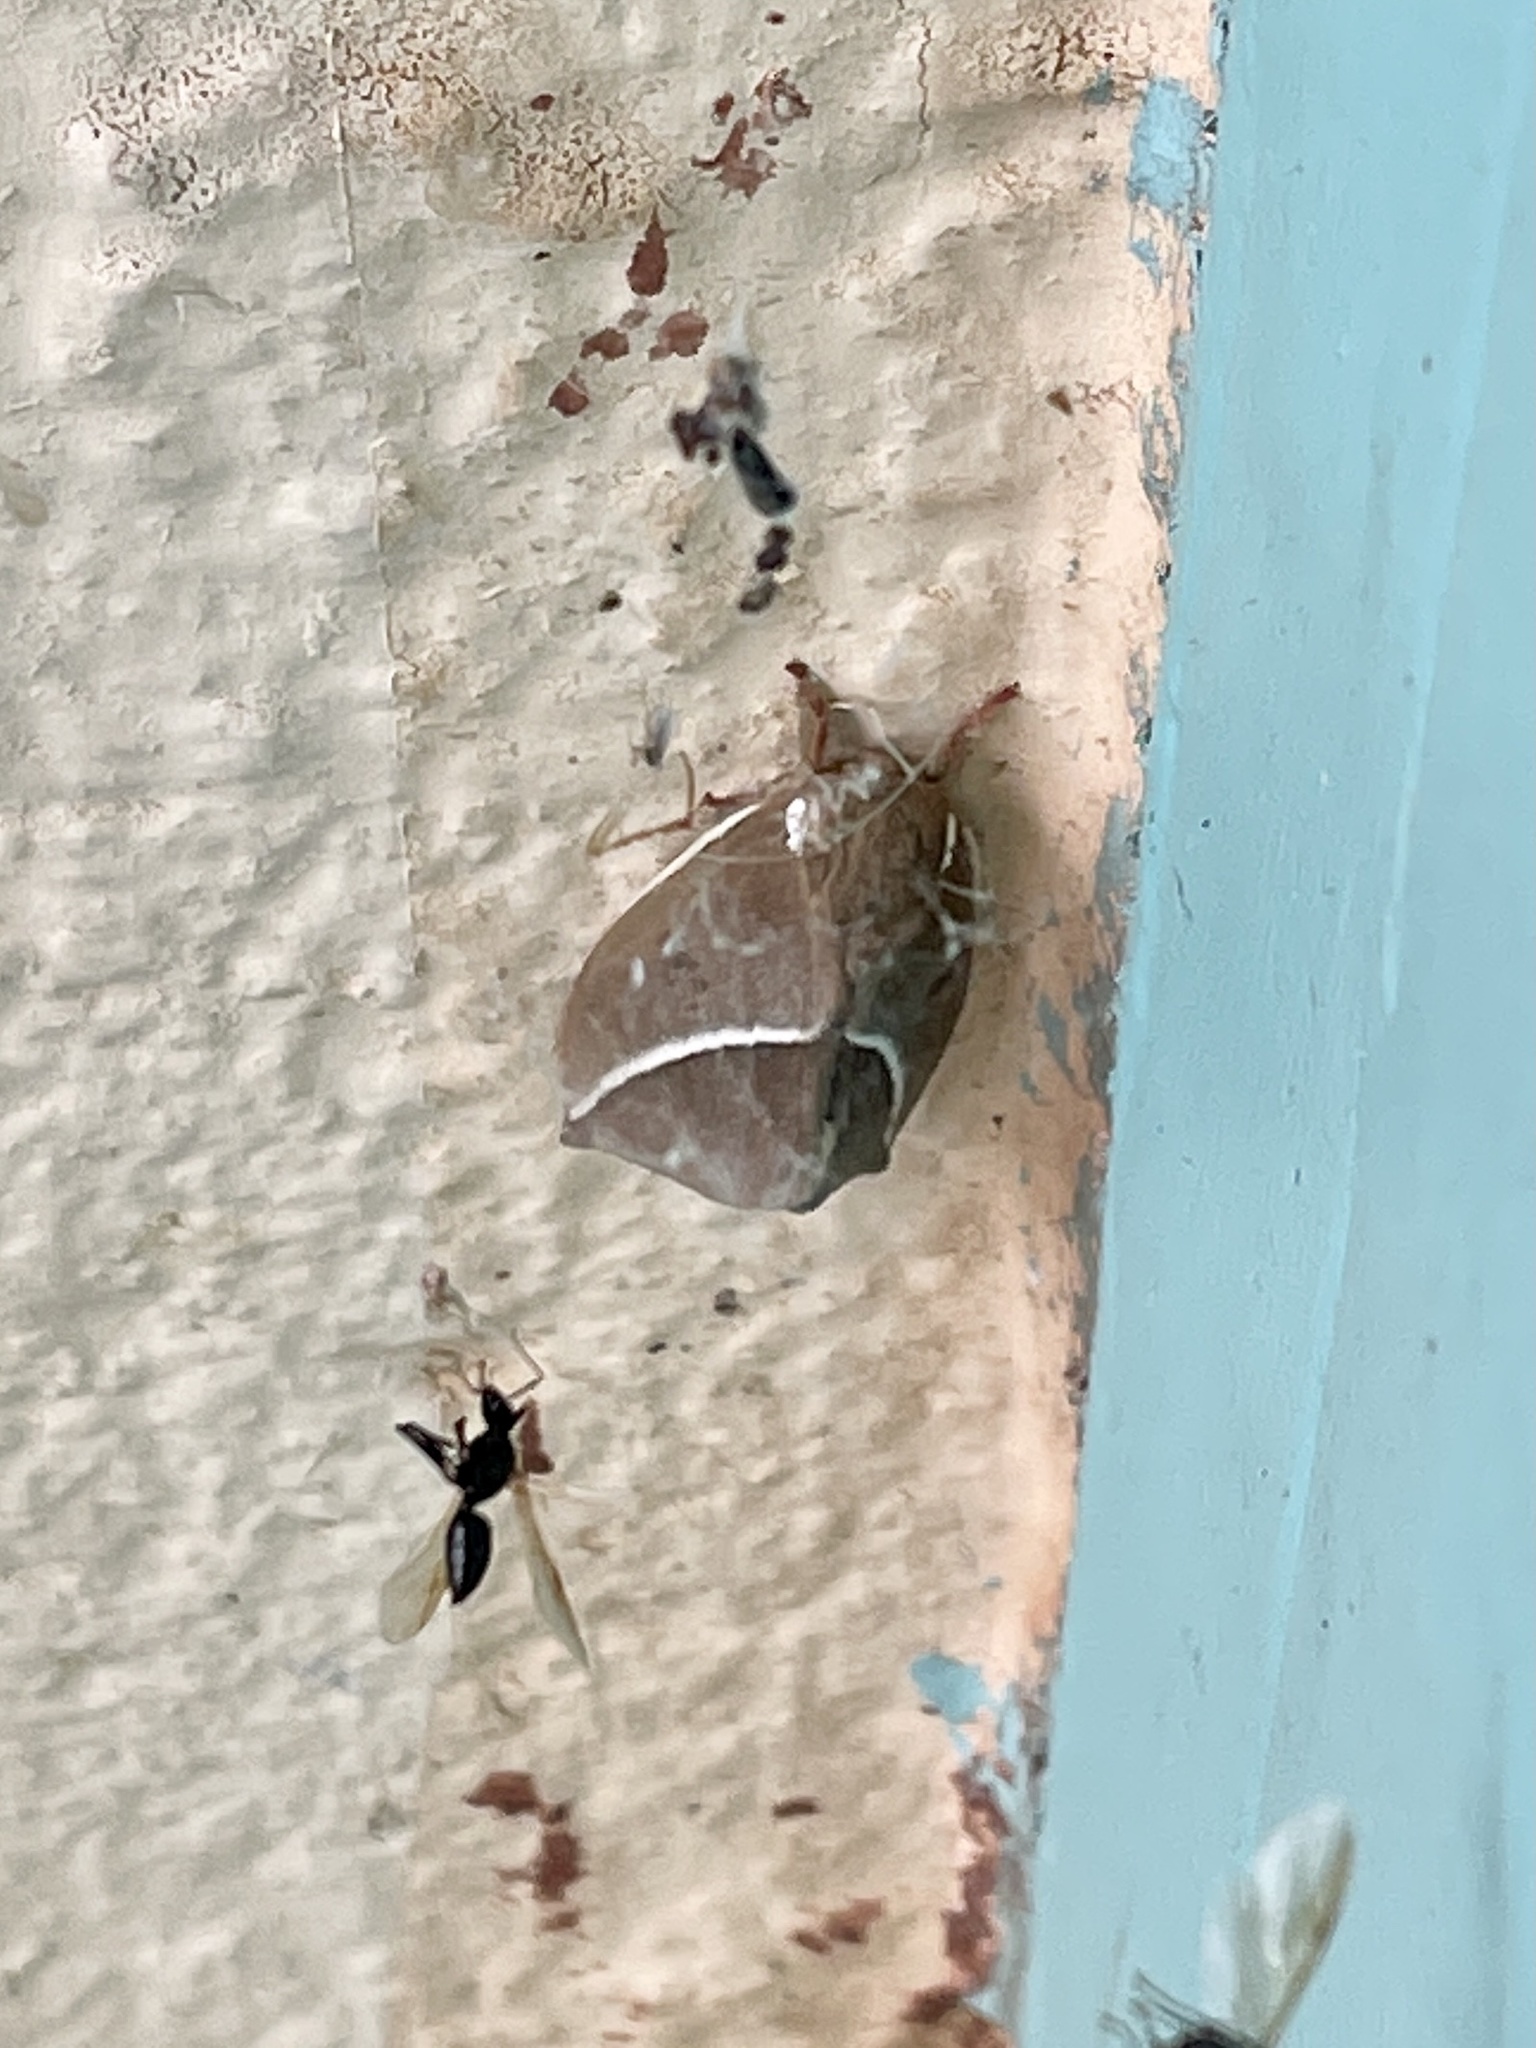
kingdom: Animalia
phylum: Arthropoda
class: Insecta
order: Lepidoptera
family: Saturniidae
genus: Automeris
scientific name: Automeris zephyria
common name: Zephyr eyed silkmoth
